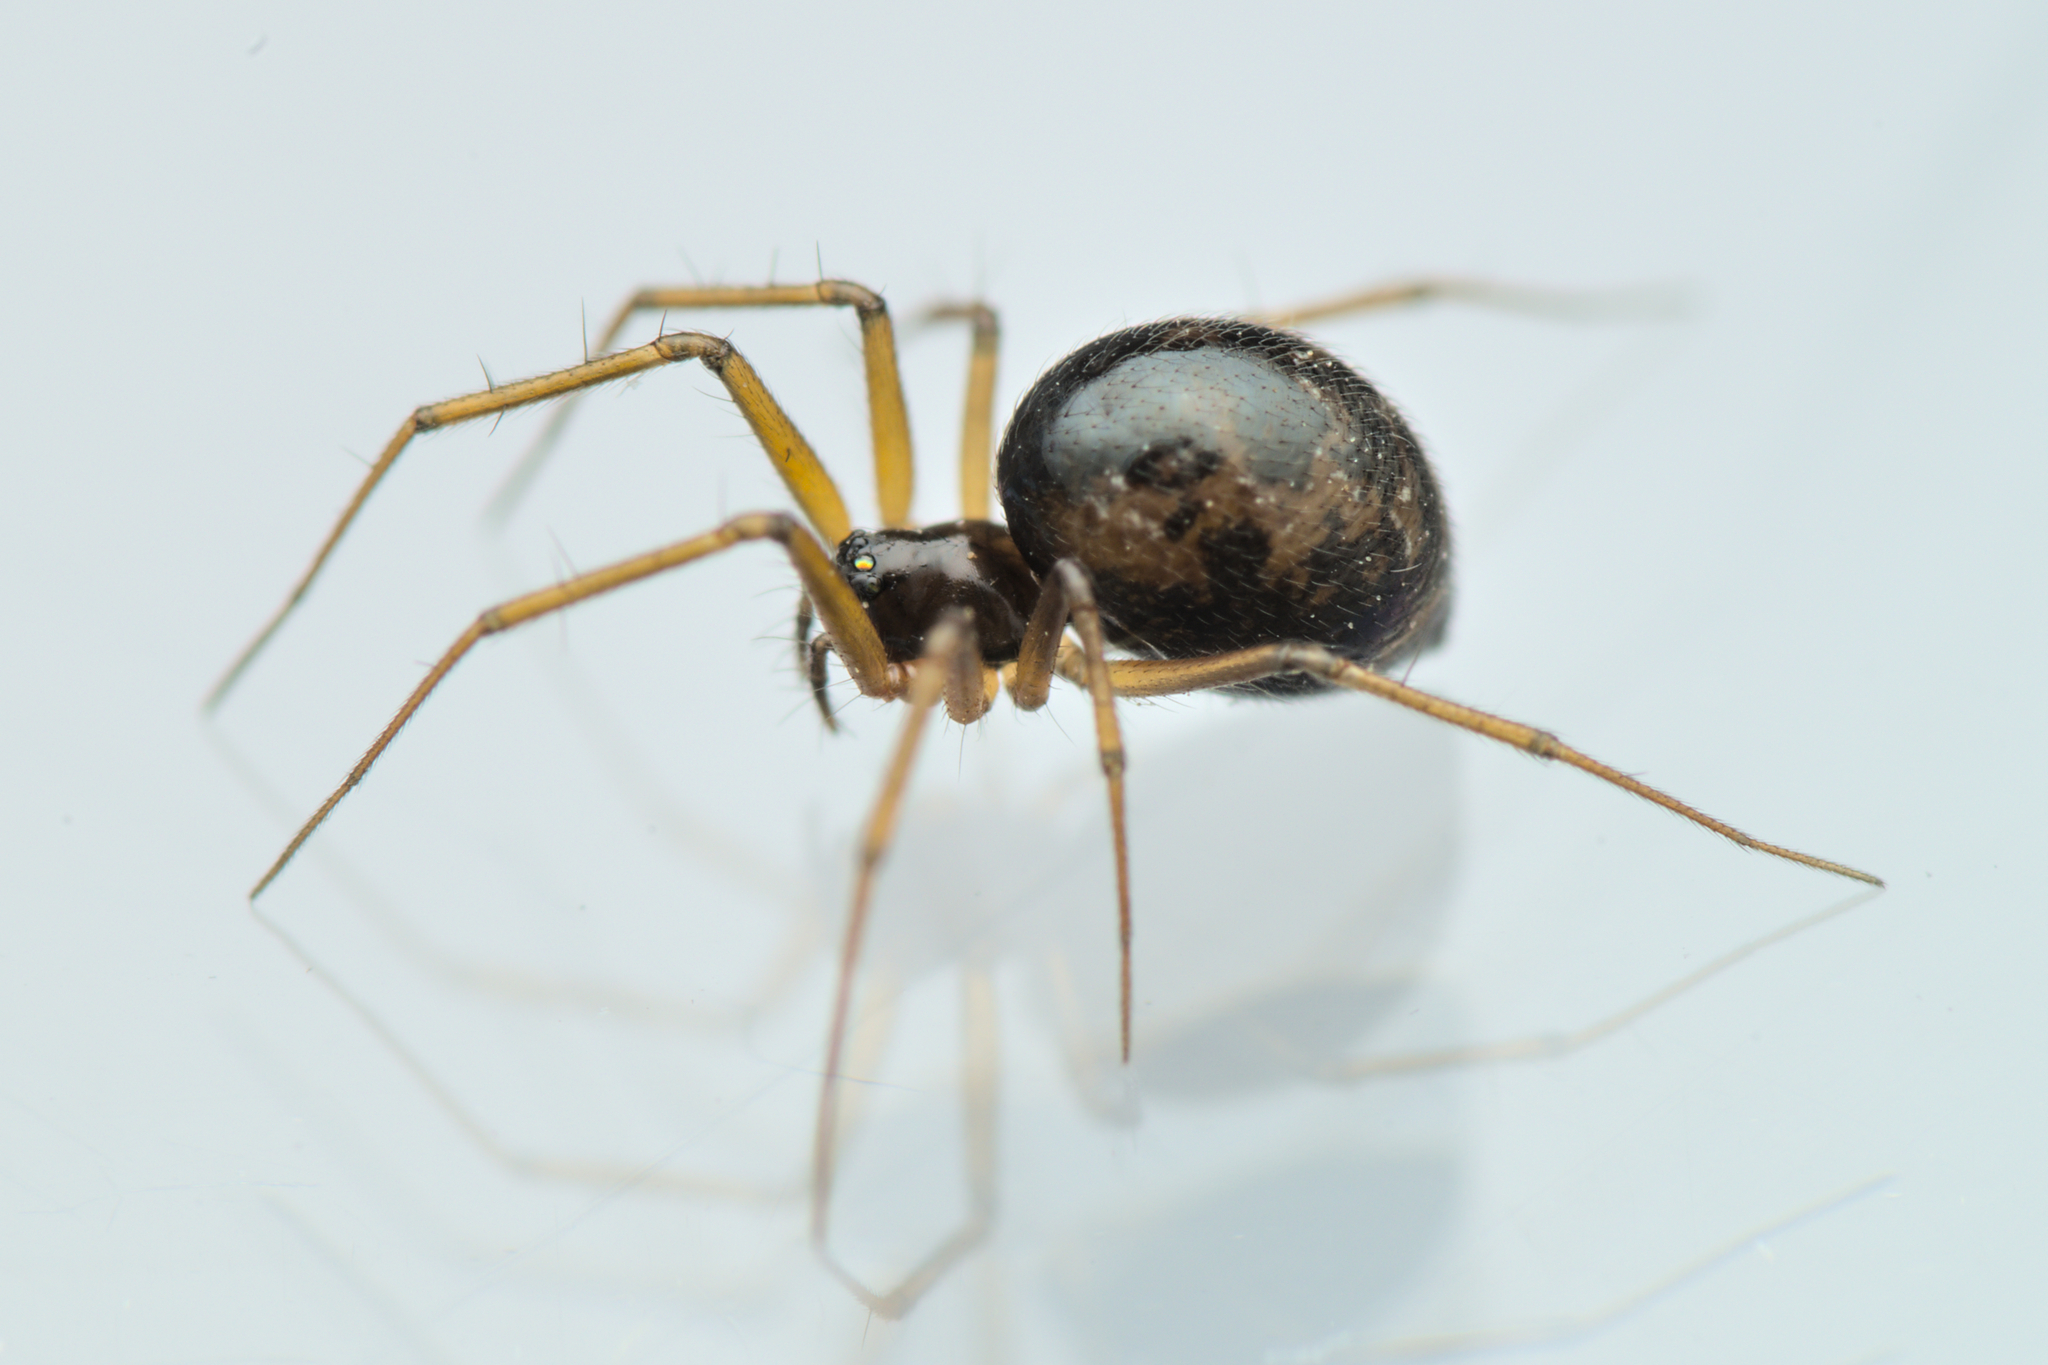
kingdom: Animalia
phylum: Arthropoda
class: Arachnida
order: Araneae
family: Linyphiidae
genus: Tenuiphantes
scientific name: Tenuiphantes tenuis
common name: Dwarf weaver
